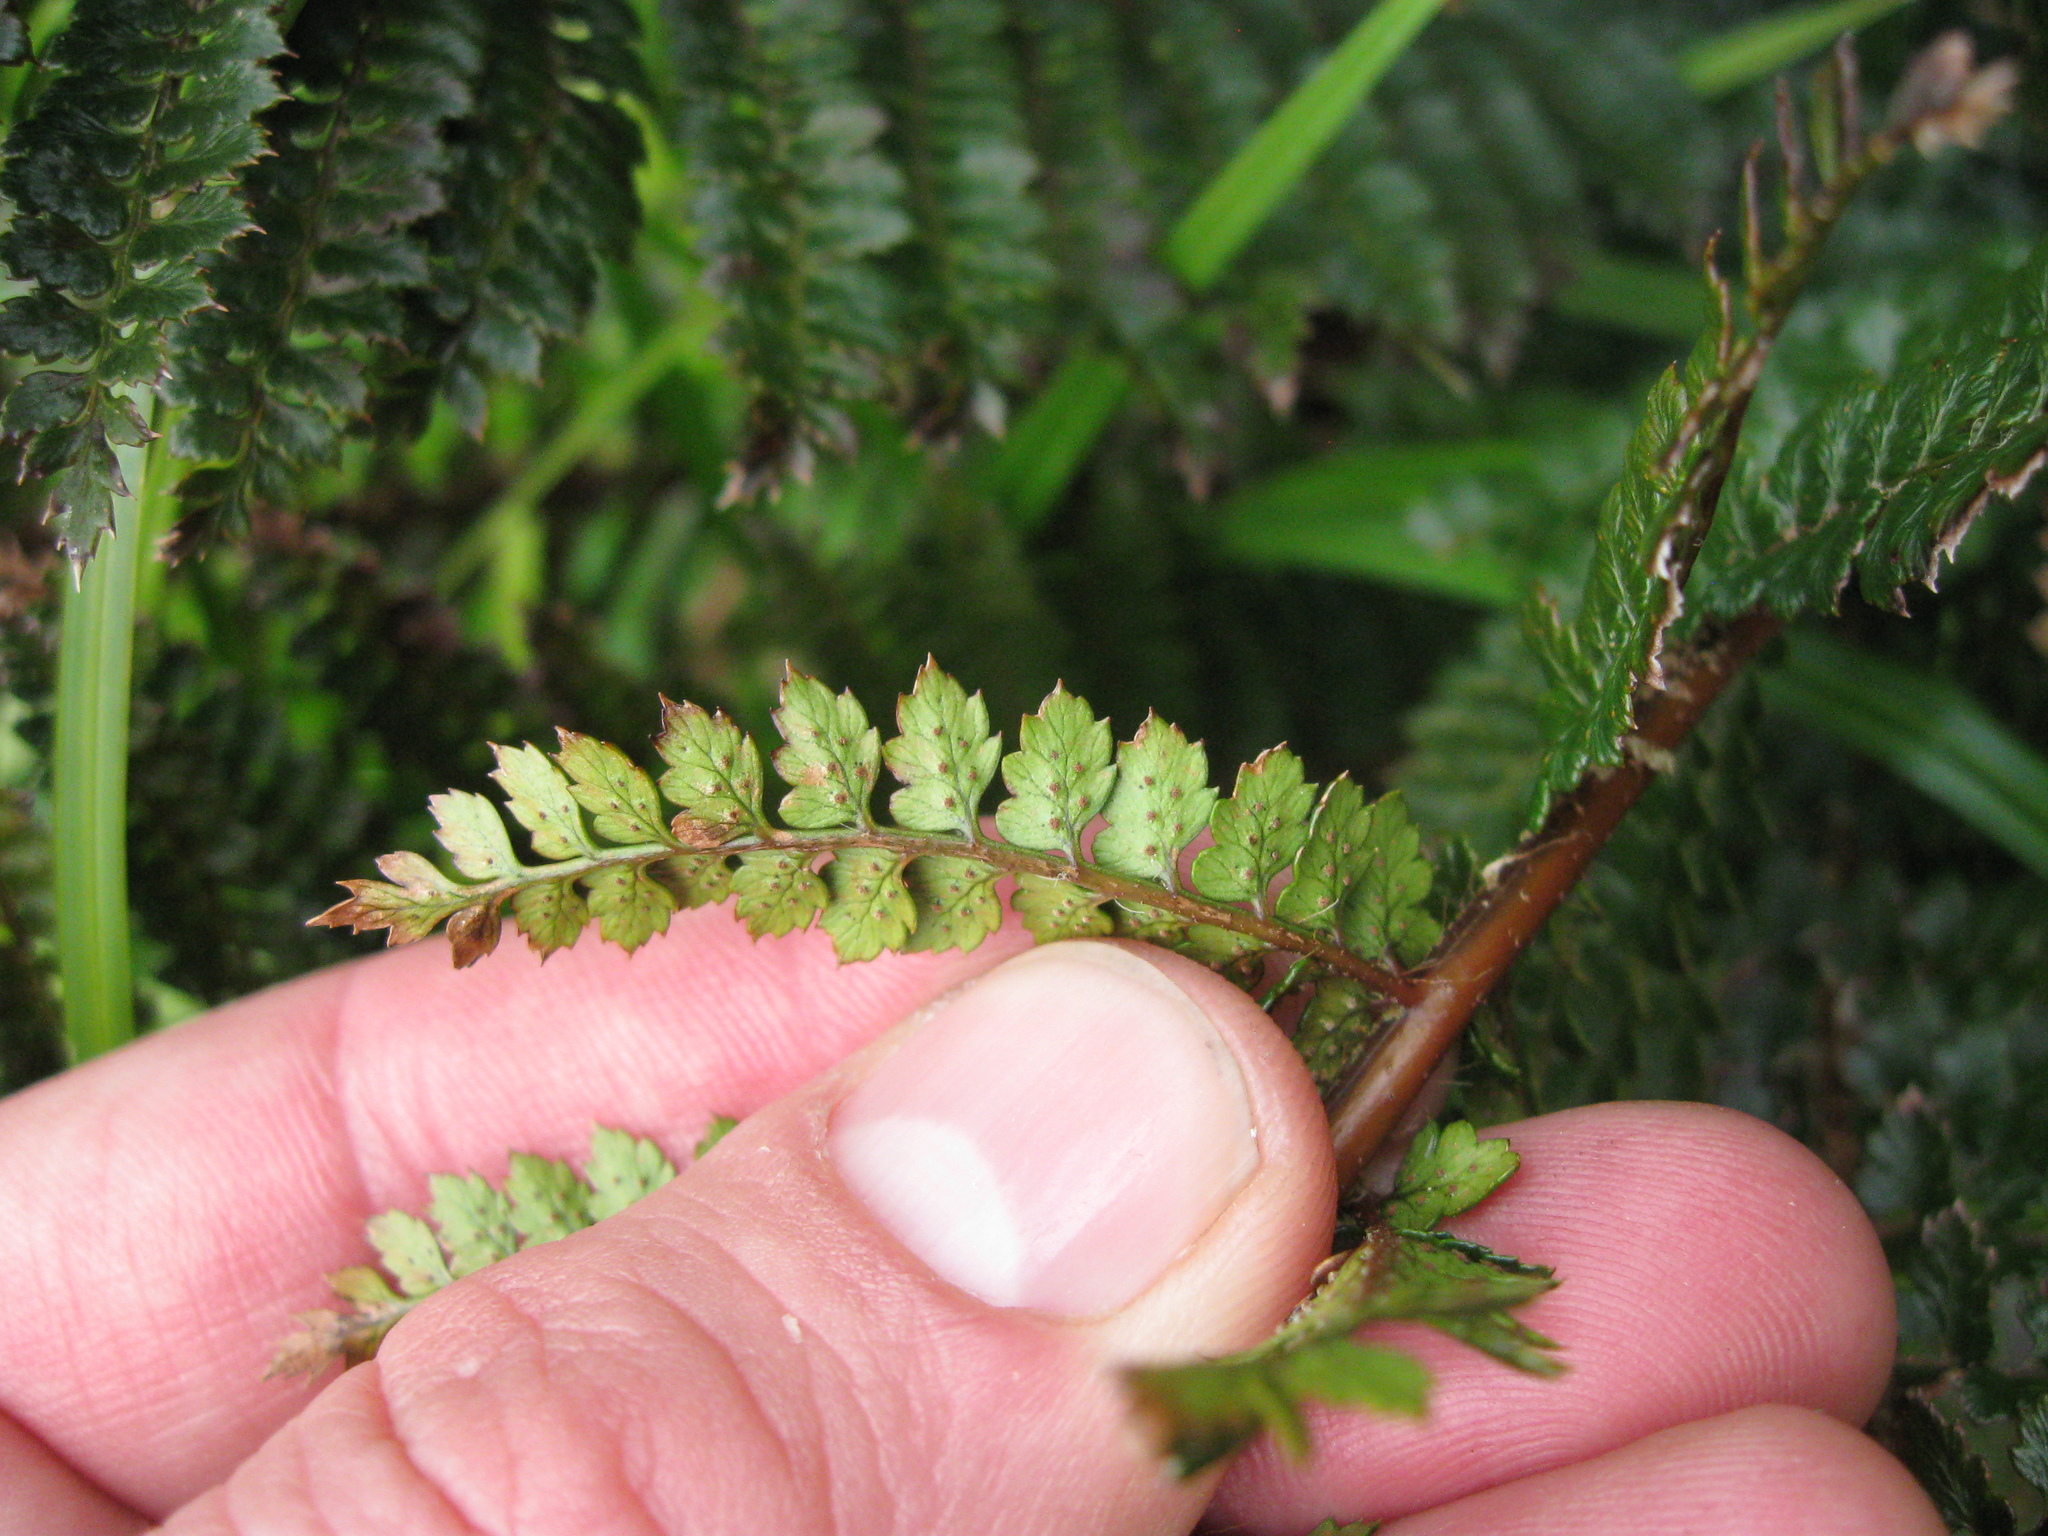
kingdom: Plantae
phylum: Tracheophyta
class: Polypodiopsida
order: Polypodiales
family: Dryopteridaceae
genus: Polystichum
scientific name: Polystichum vestitum
